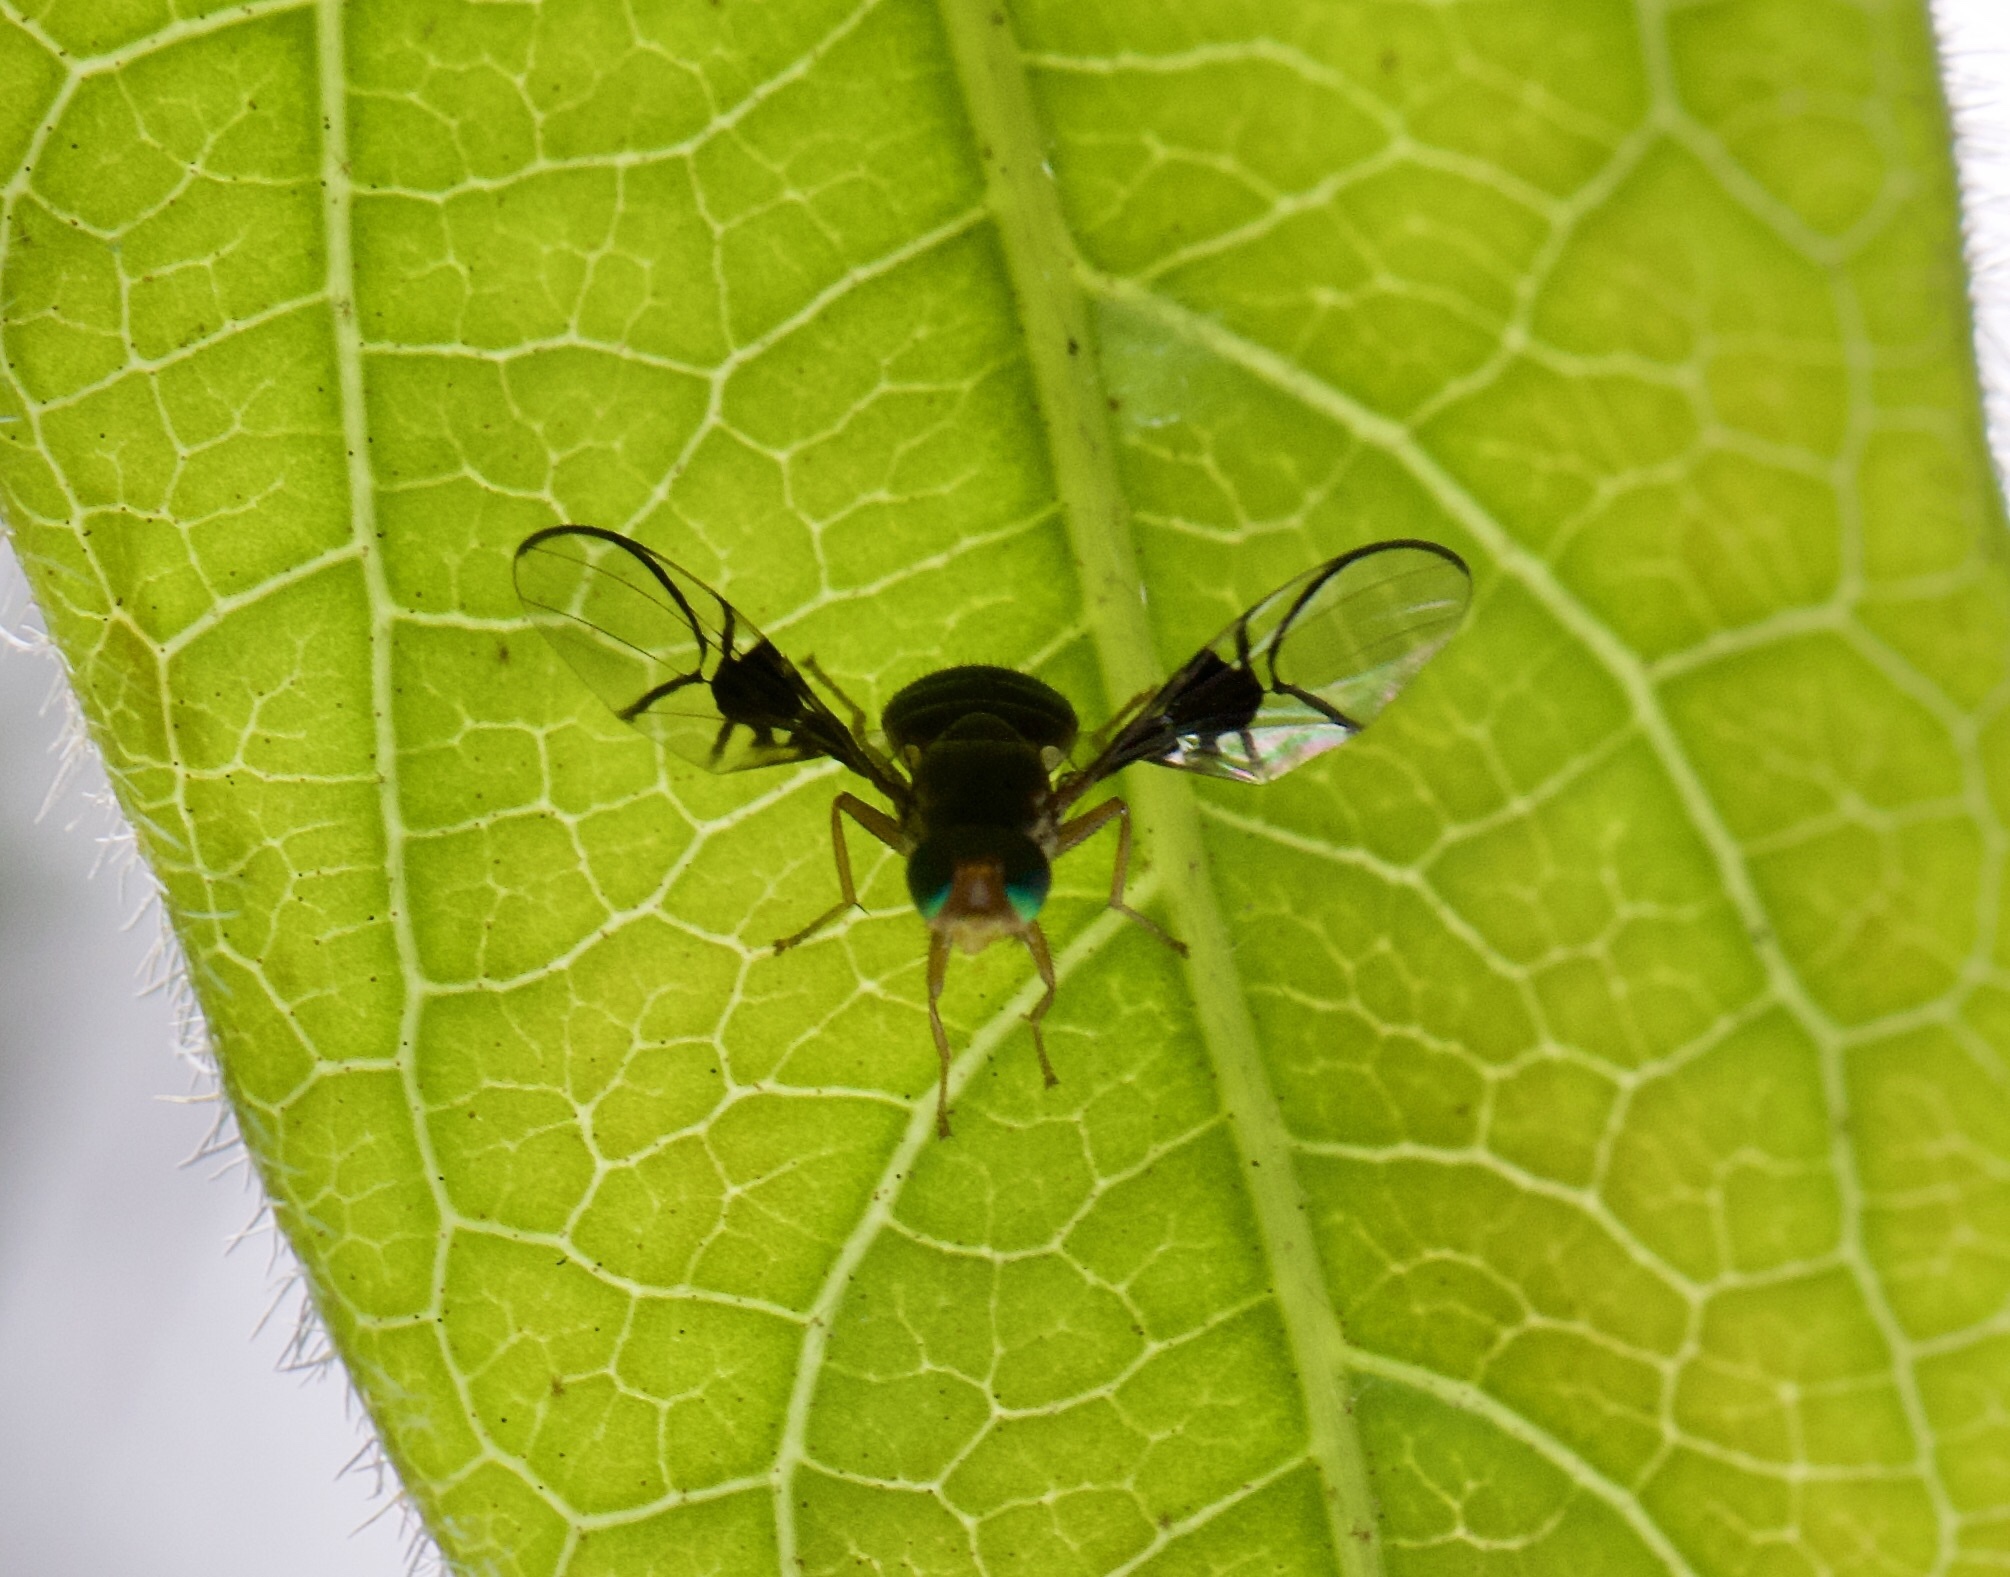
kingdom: Animalia
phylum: Arthropoda
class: Insecta
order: Diptera
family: Tephritidae
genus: Anomoia
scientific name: Anomoia purmunda
